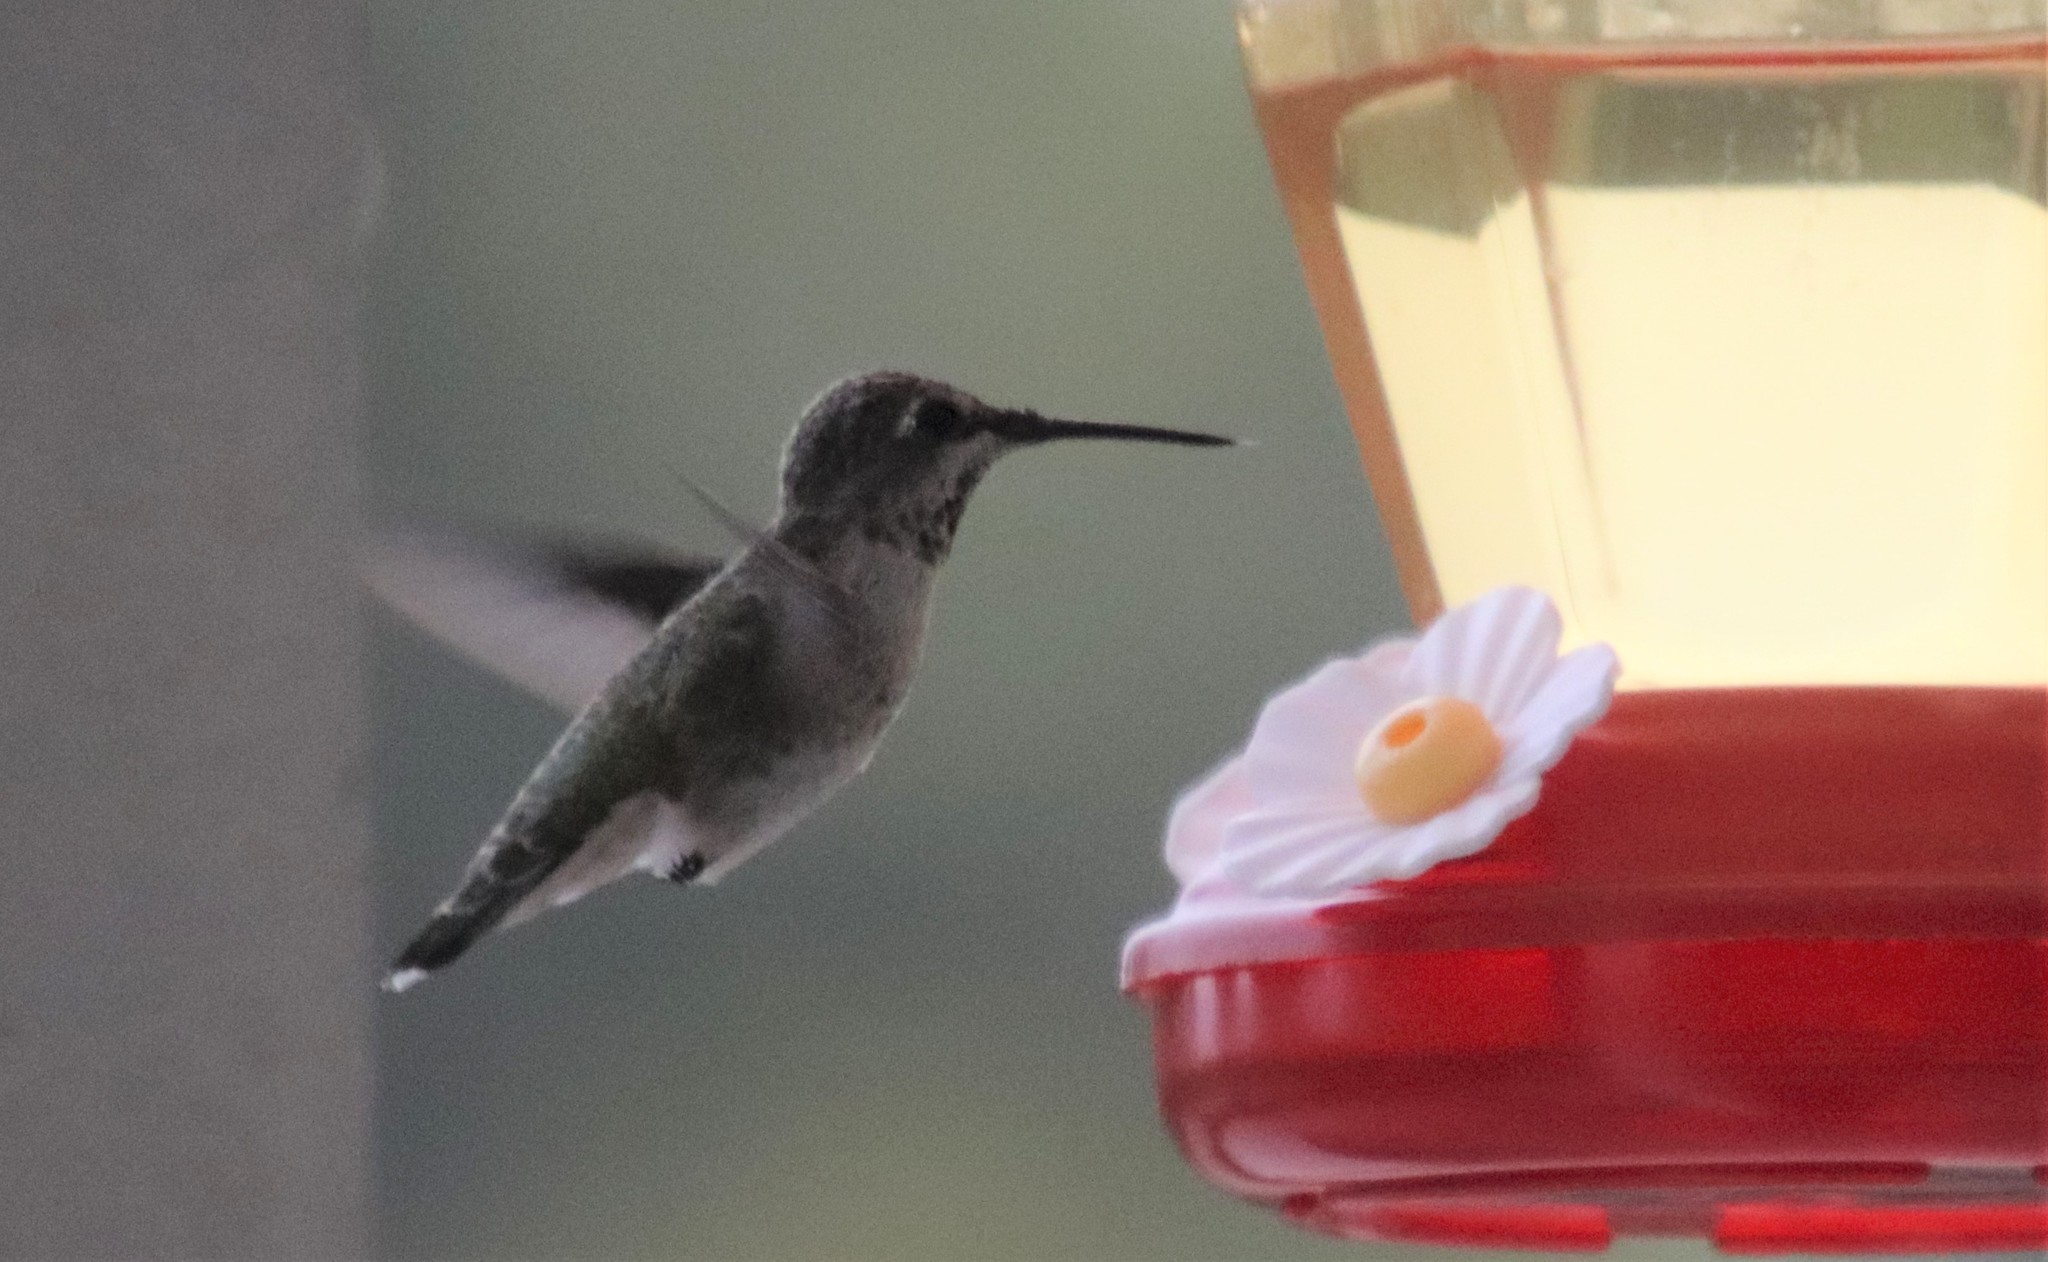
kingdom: Animalia
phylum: Chordata
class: Aves
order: Apodiformes
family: Trochilidae
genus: Calypte
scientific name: Calypte anna
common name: Anna's hummingbird
